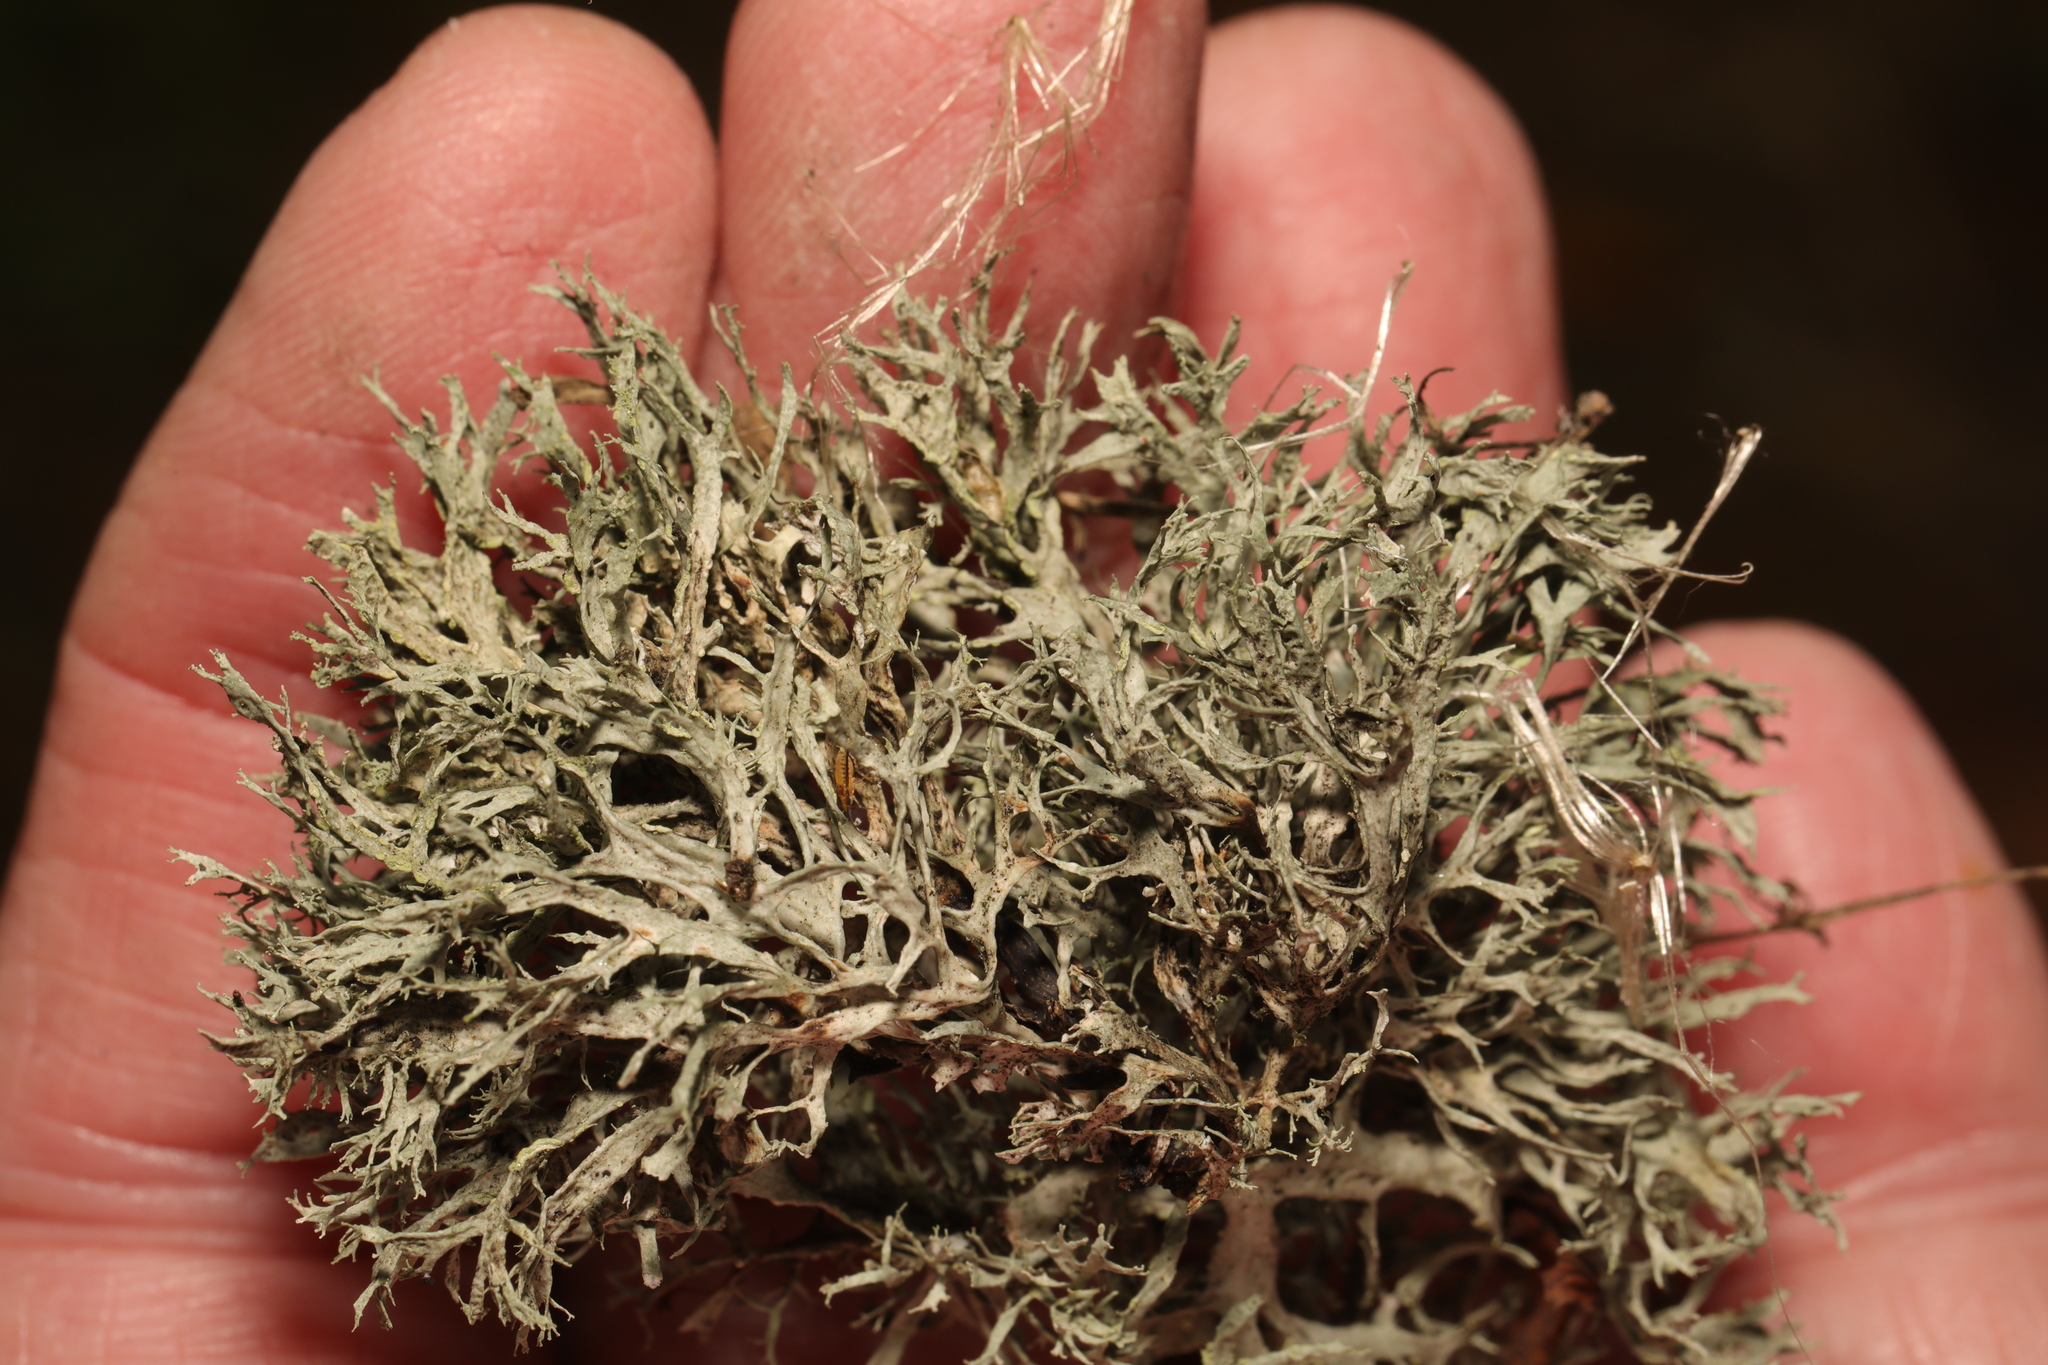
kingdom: Fungi
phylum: Ascomycota
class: Lecanoromycetes
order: Lecanorales
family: Ramalinaceae
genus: Ramalina
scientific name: Ramalina farinacea
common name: Farinose cartilage lichen
